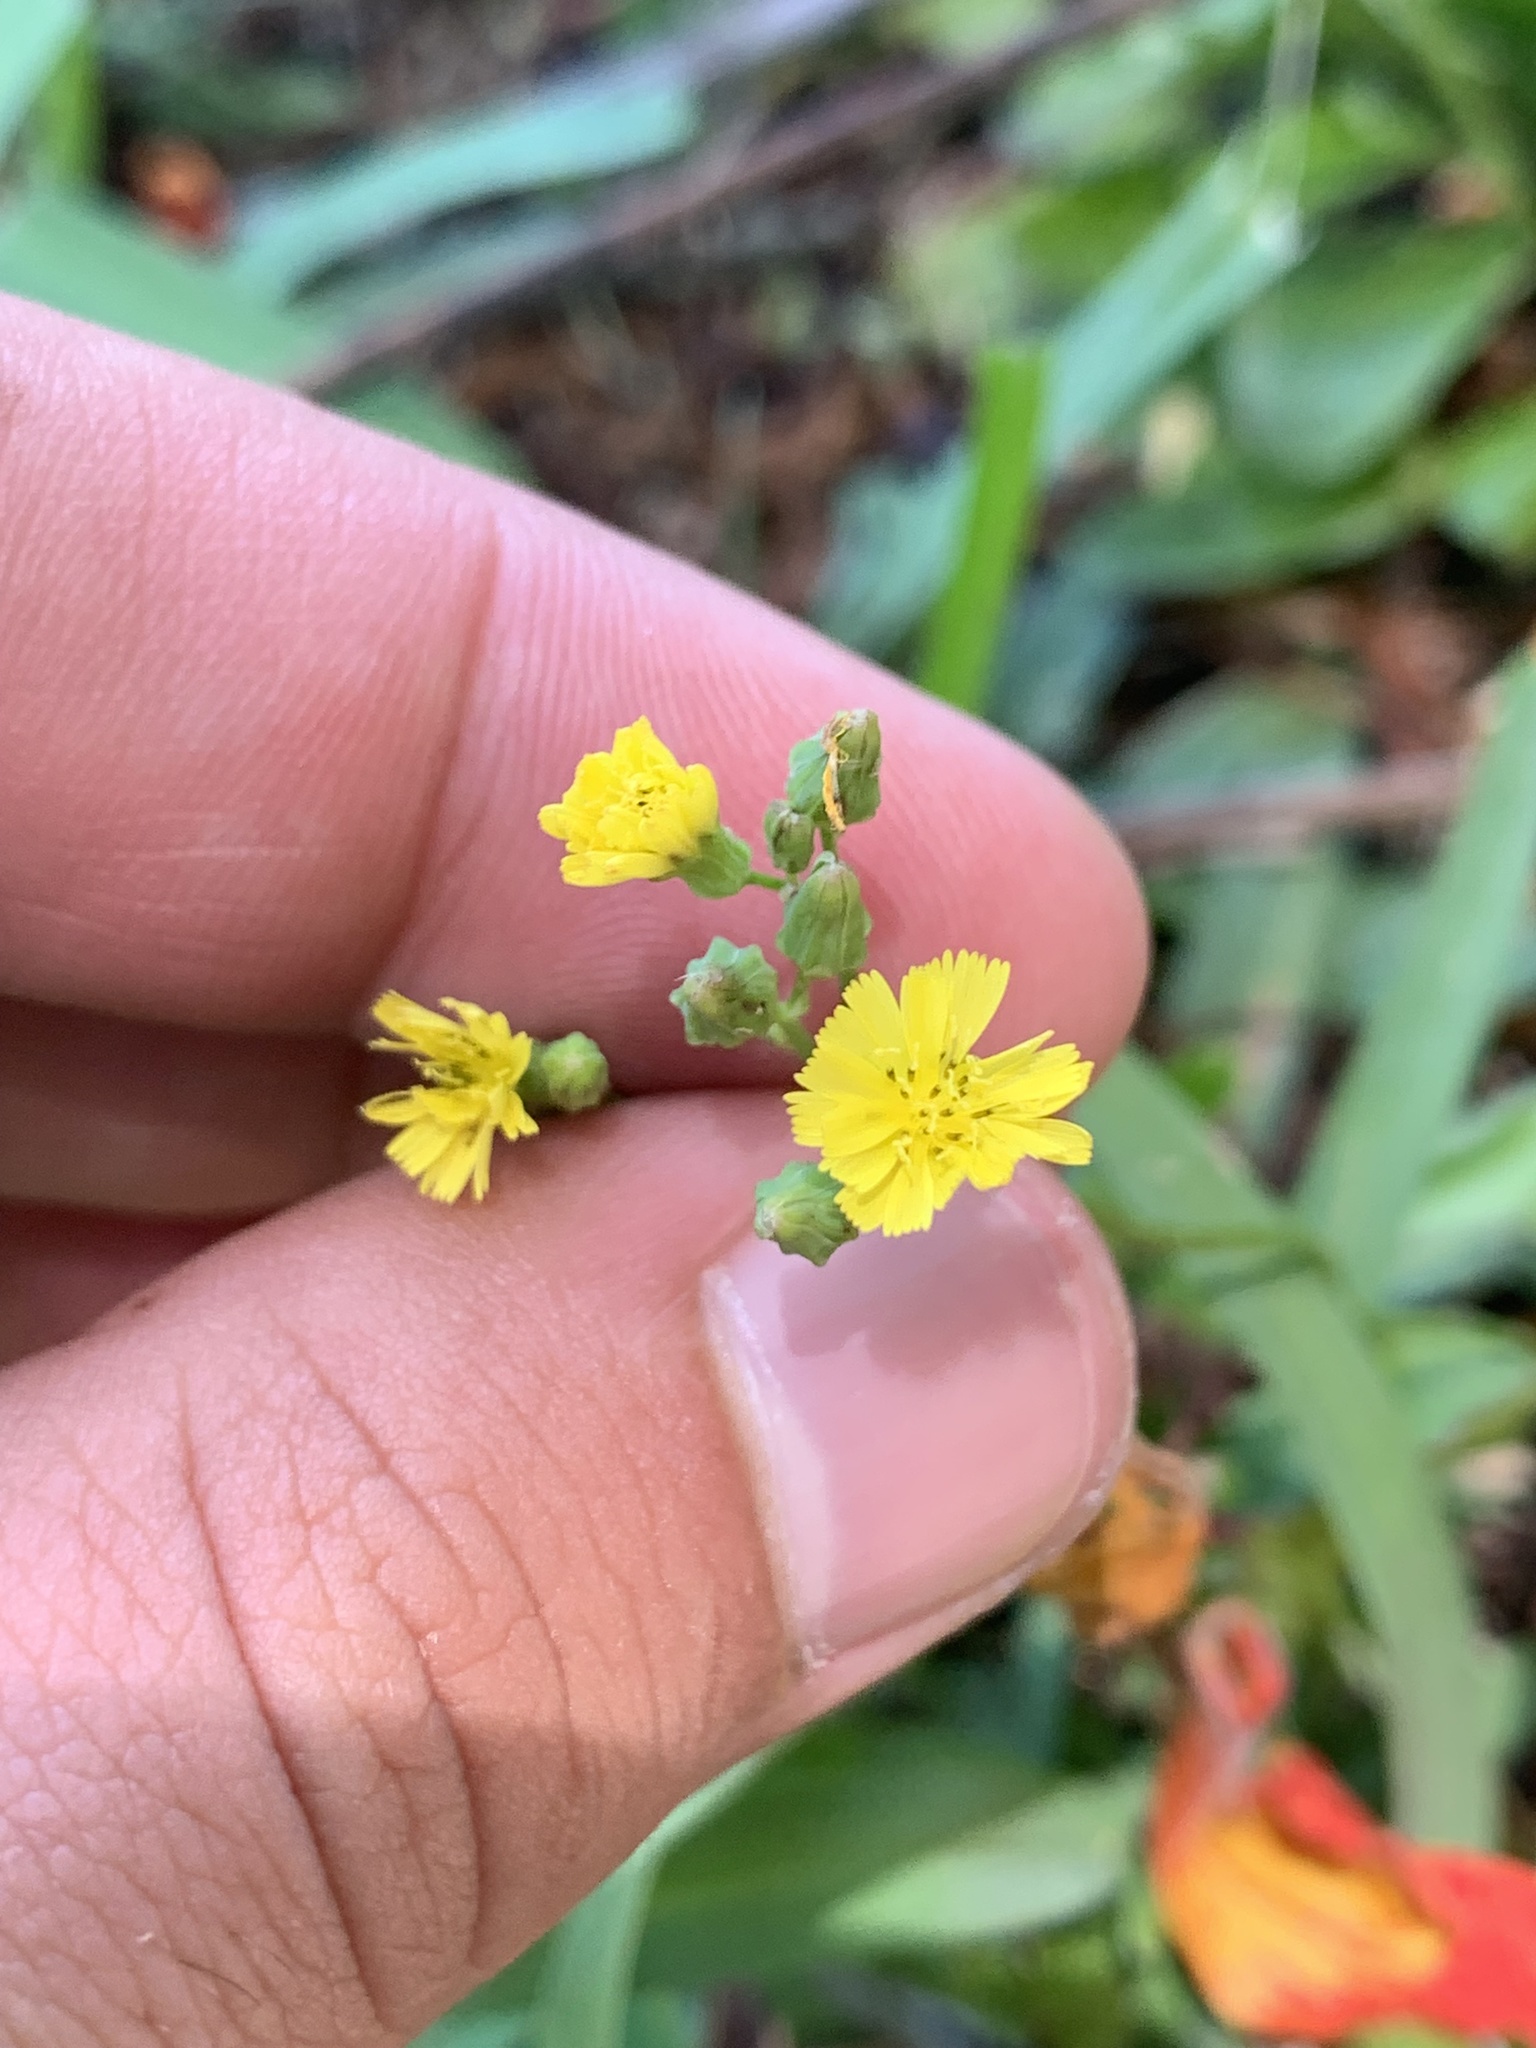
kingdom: Plantae
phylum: Tracheophyta
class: Magnoliopsida
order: Asterales
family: Asteraceae
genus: Youngia
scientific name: Youngia japonica
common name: Oriental false hawksbeard
